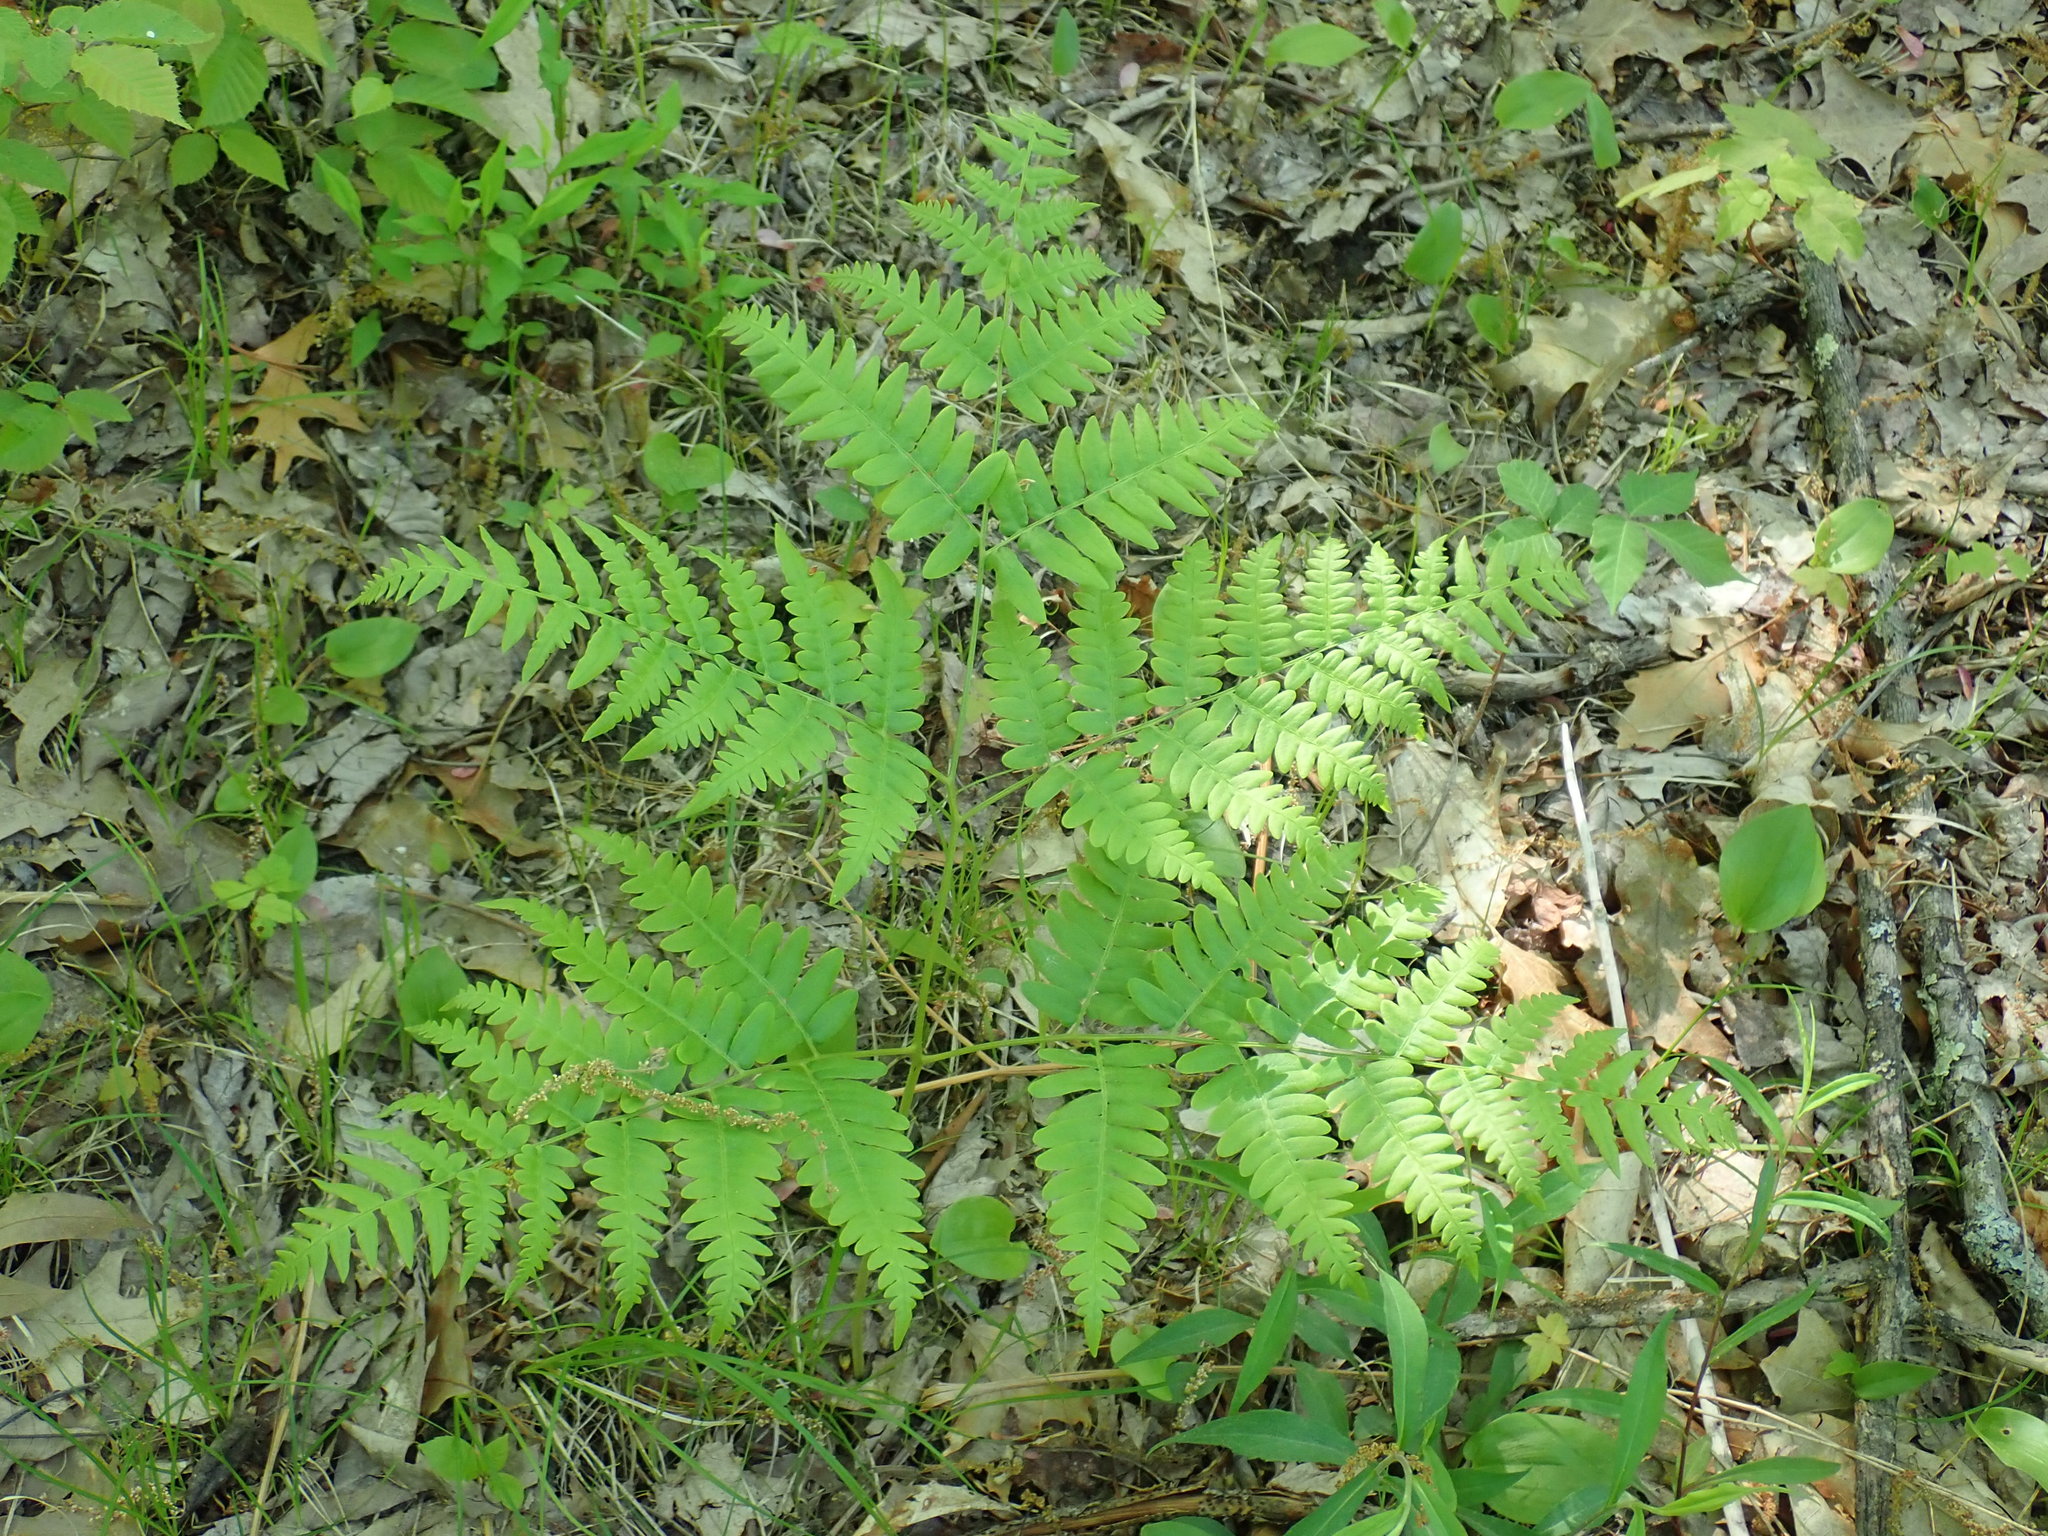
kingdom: Plantae
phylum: Tracheophyta
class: Polypodiopsida
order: Polypodiales
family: Dennstaedtiaceae
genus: Pteridium
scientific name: Pteridium aquilinum
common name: Bracken
